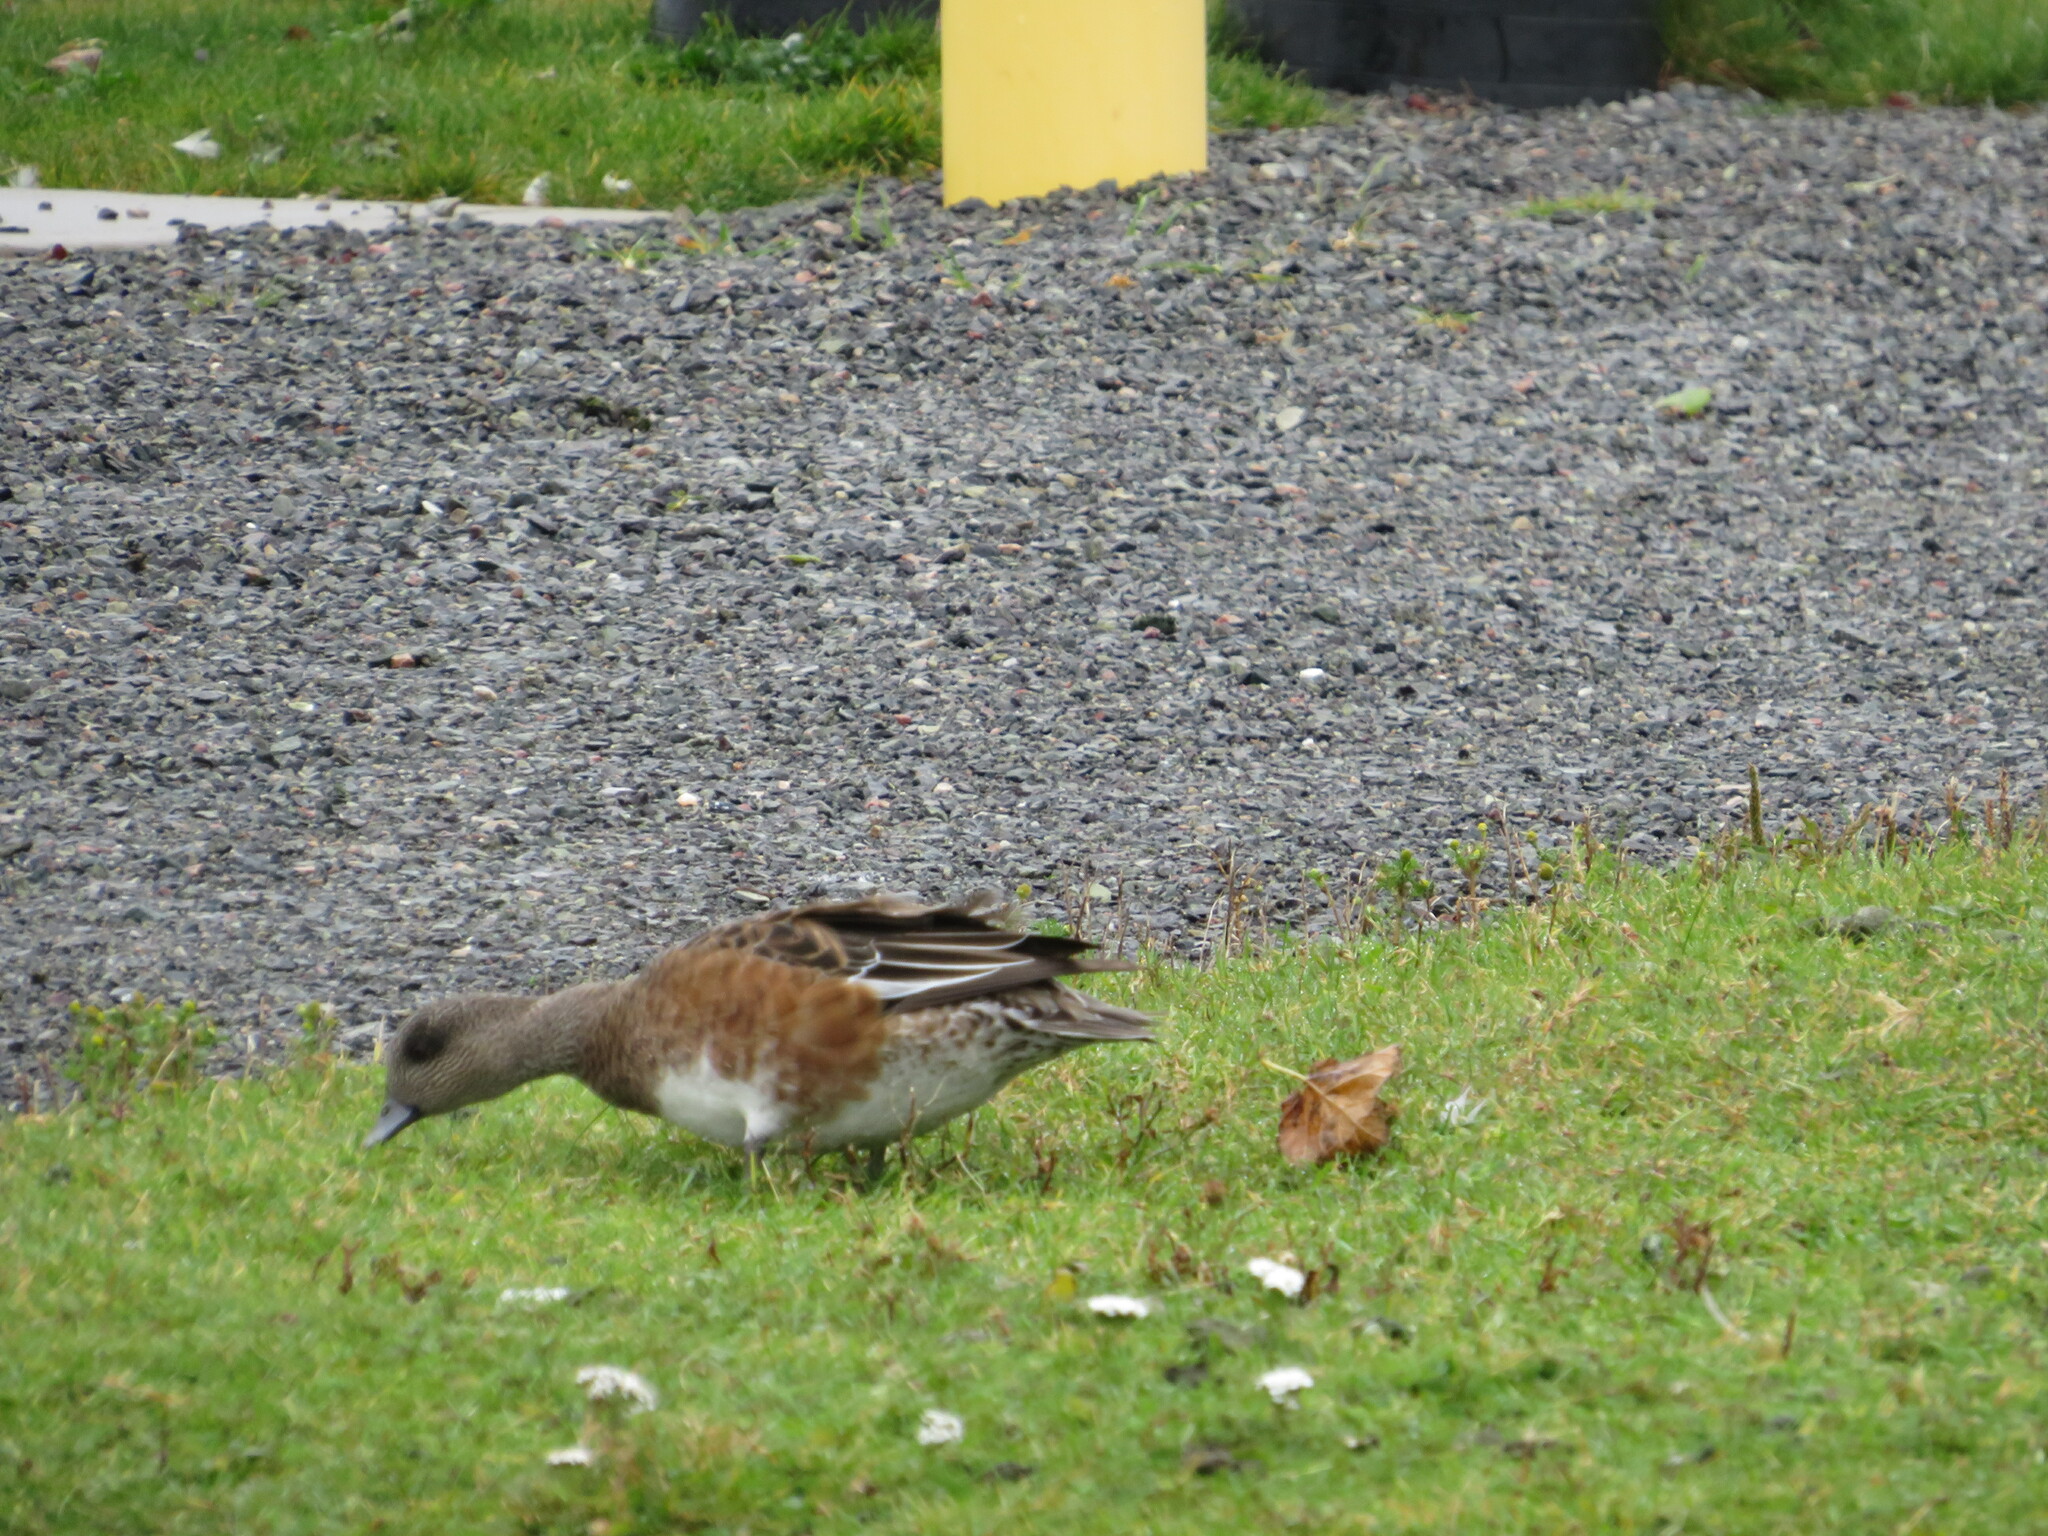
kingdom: Animalia
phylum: Chordata
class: Aves
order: Anseriformes
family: Anatidae
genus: Mareca
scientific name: Mareca americana
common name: American wigeon
